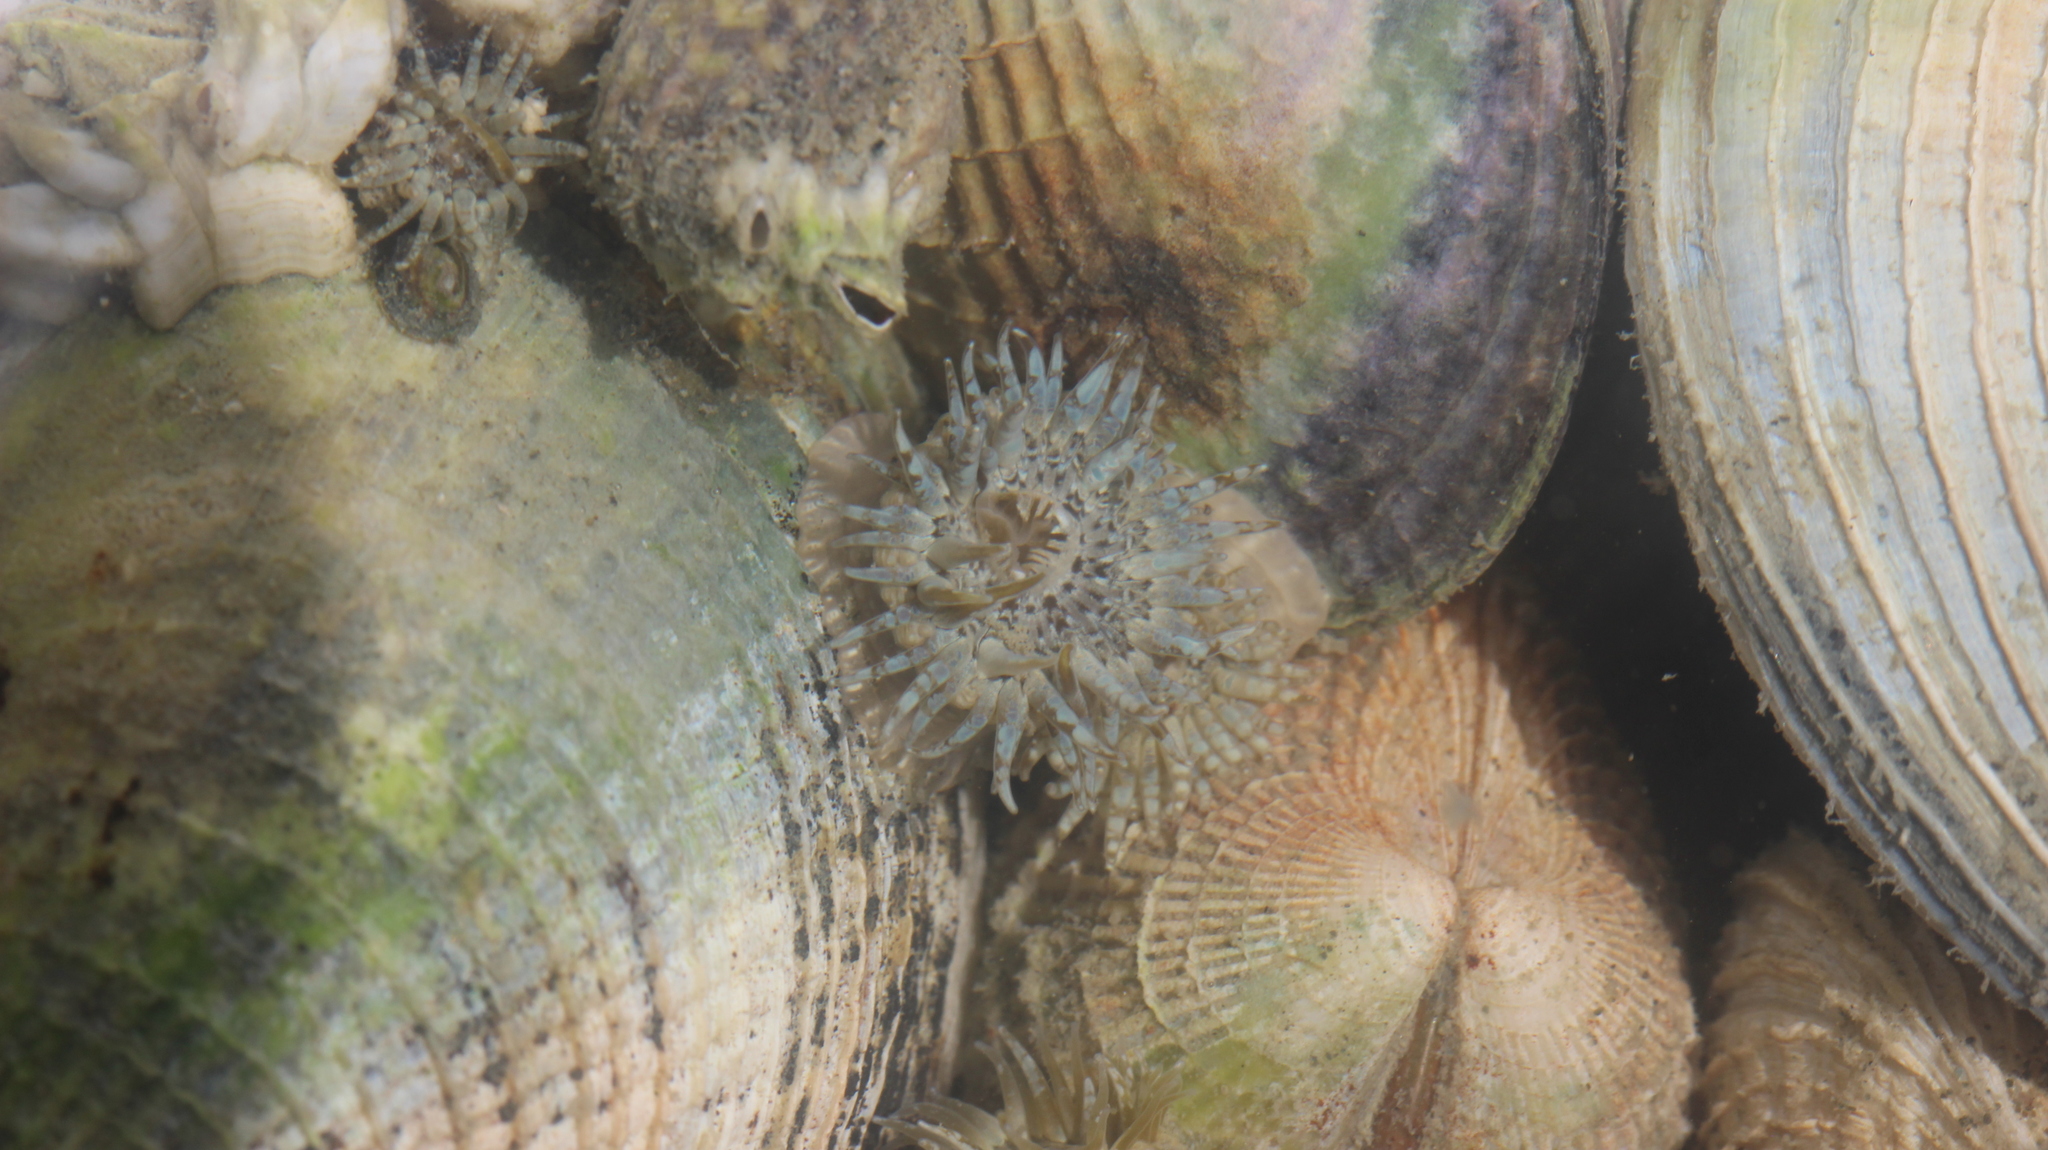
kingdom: Animalia
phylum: Cnidaria
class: Anthozoa
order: Actiniaria
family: Actiniidae
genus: Anthopleura
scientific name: Anthopleura hermaphroditica
